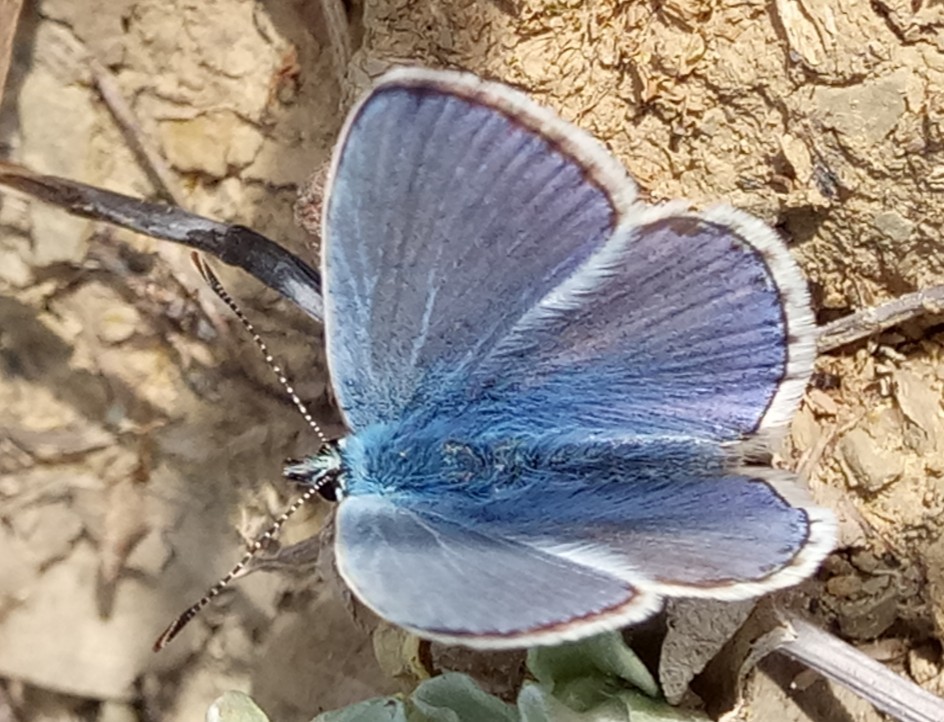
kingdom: Animalia
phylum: Arthropoda
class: Insecta
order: Lepidoptera
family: Lycaenidae
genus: Polyommatus
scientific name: Polyommatus celina
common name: Austaut's blue
